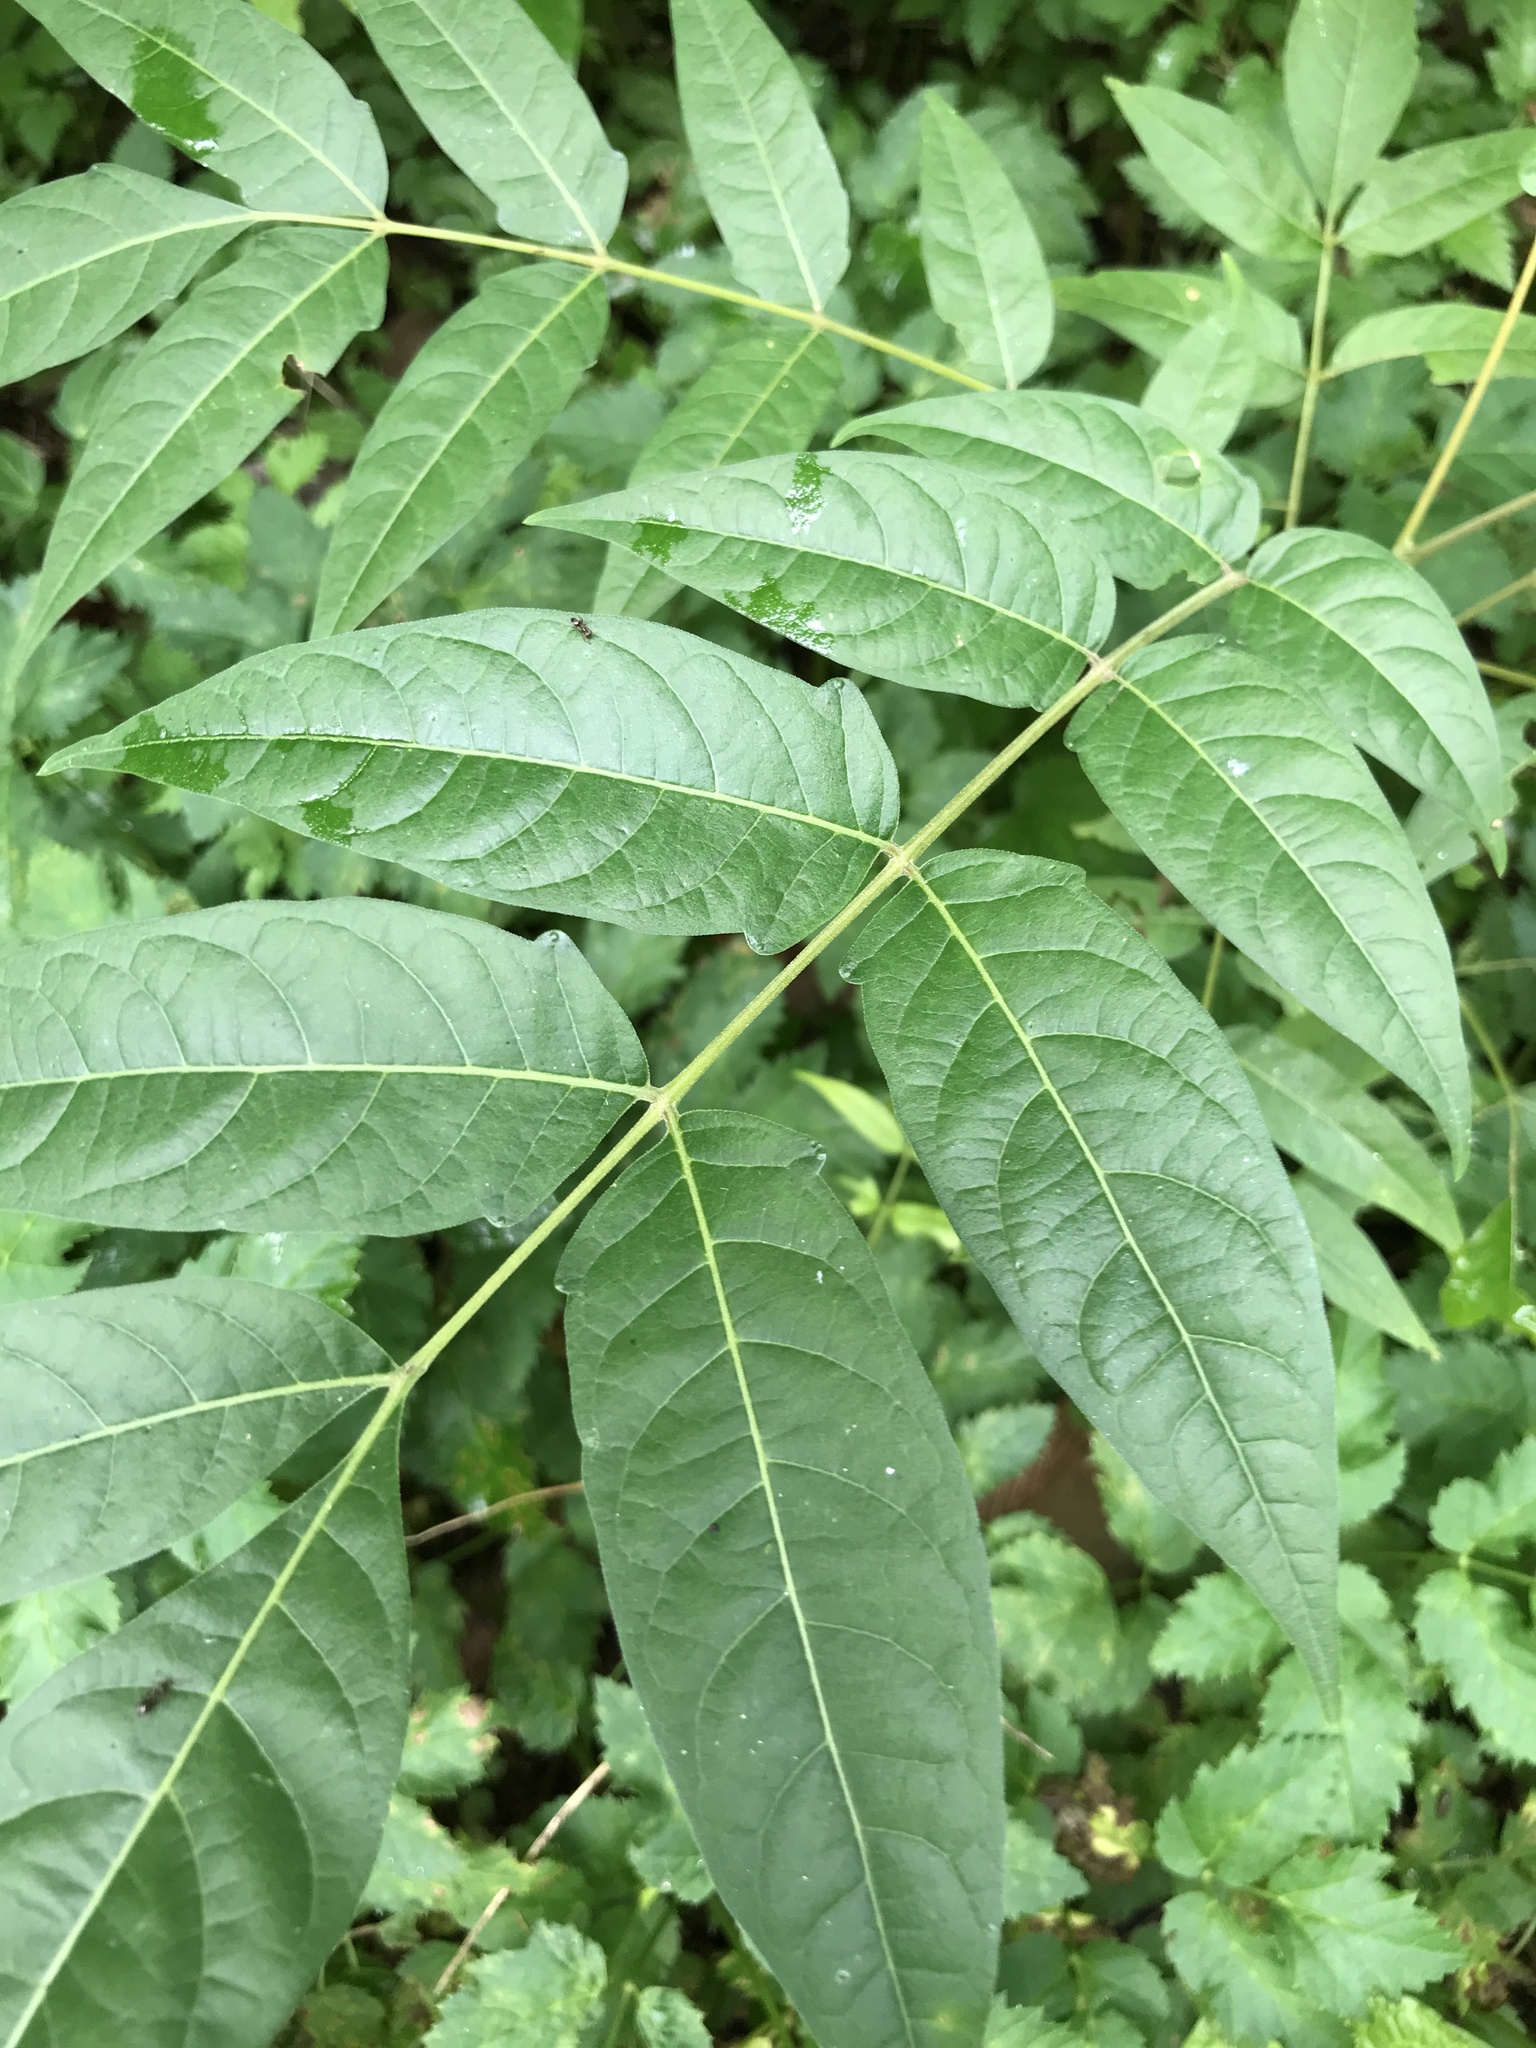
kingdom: Plantae
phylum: Tracheophyta
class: Magnoliopsida
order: Sapindales
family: Simaroubaceae
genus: Ailanthus
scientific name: Ailanthus altissima
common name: Tree-of-heaven
